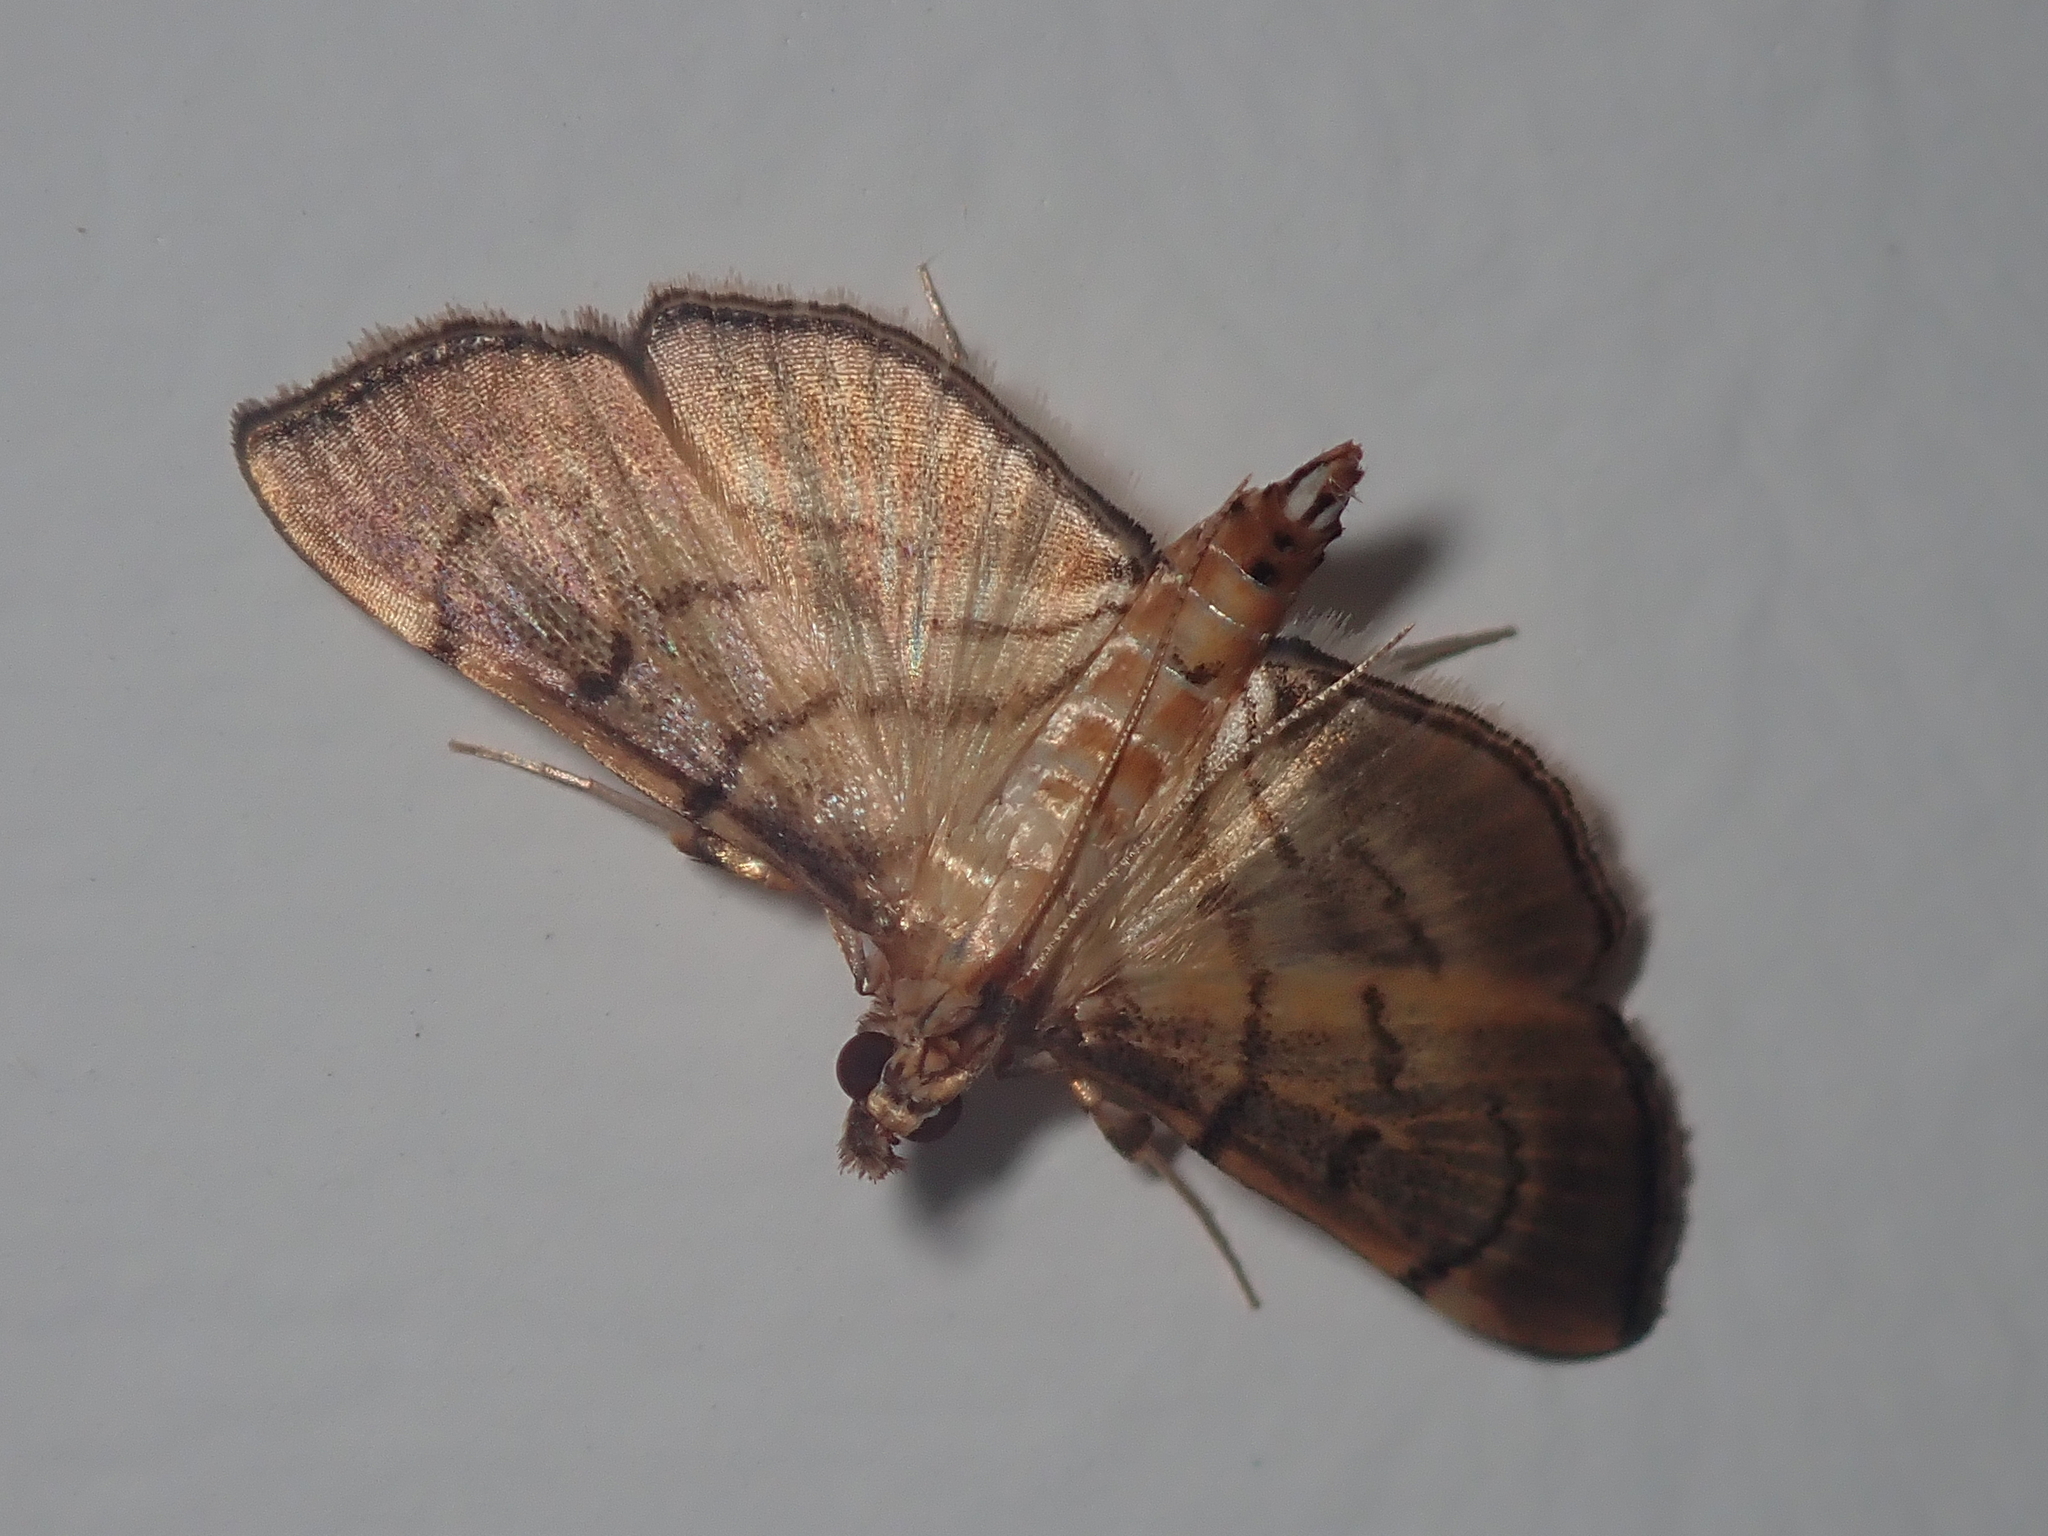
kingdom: Animalia
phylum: Arthropoda
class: Insecta
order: Lepidoptera
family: Crambidae
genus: Salbia
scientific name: Salbia
